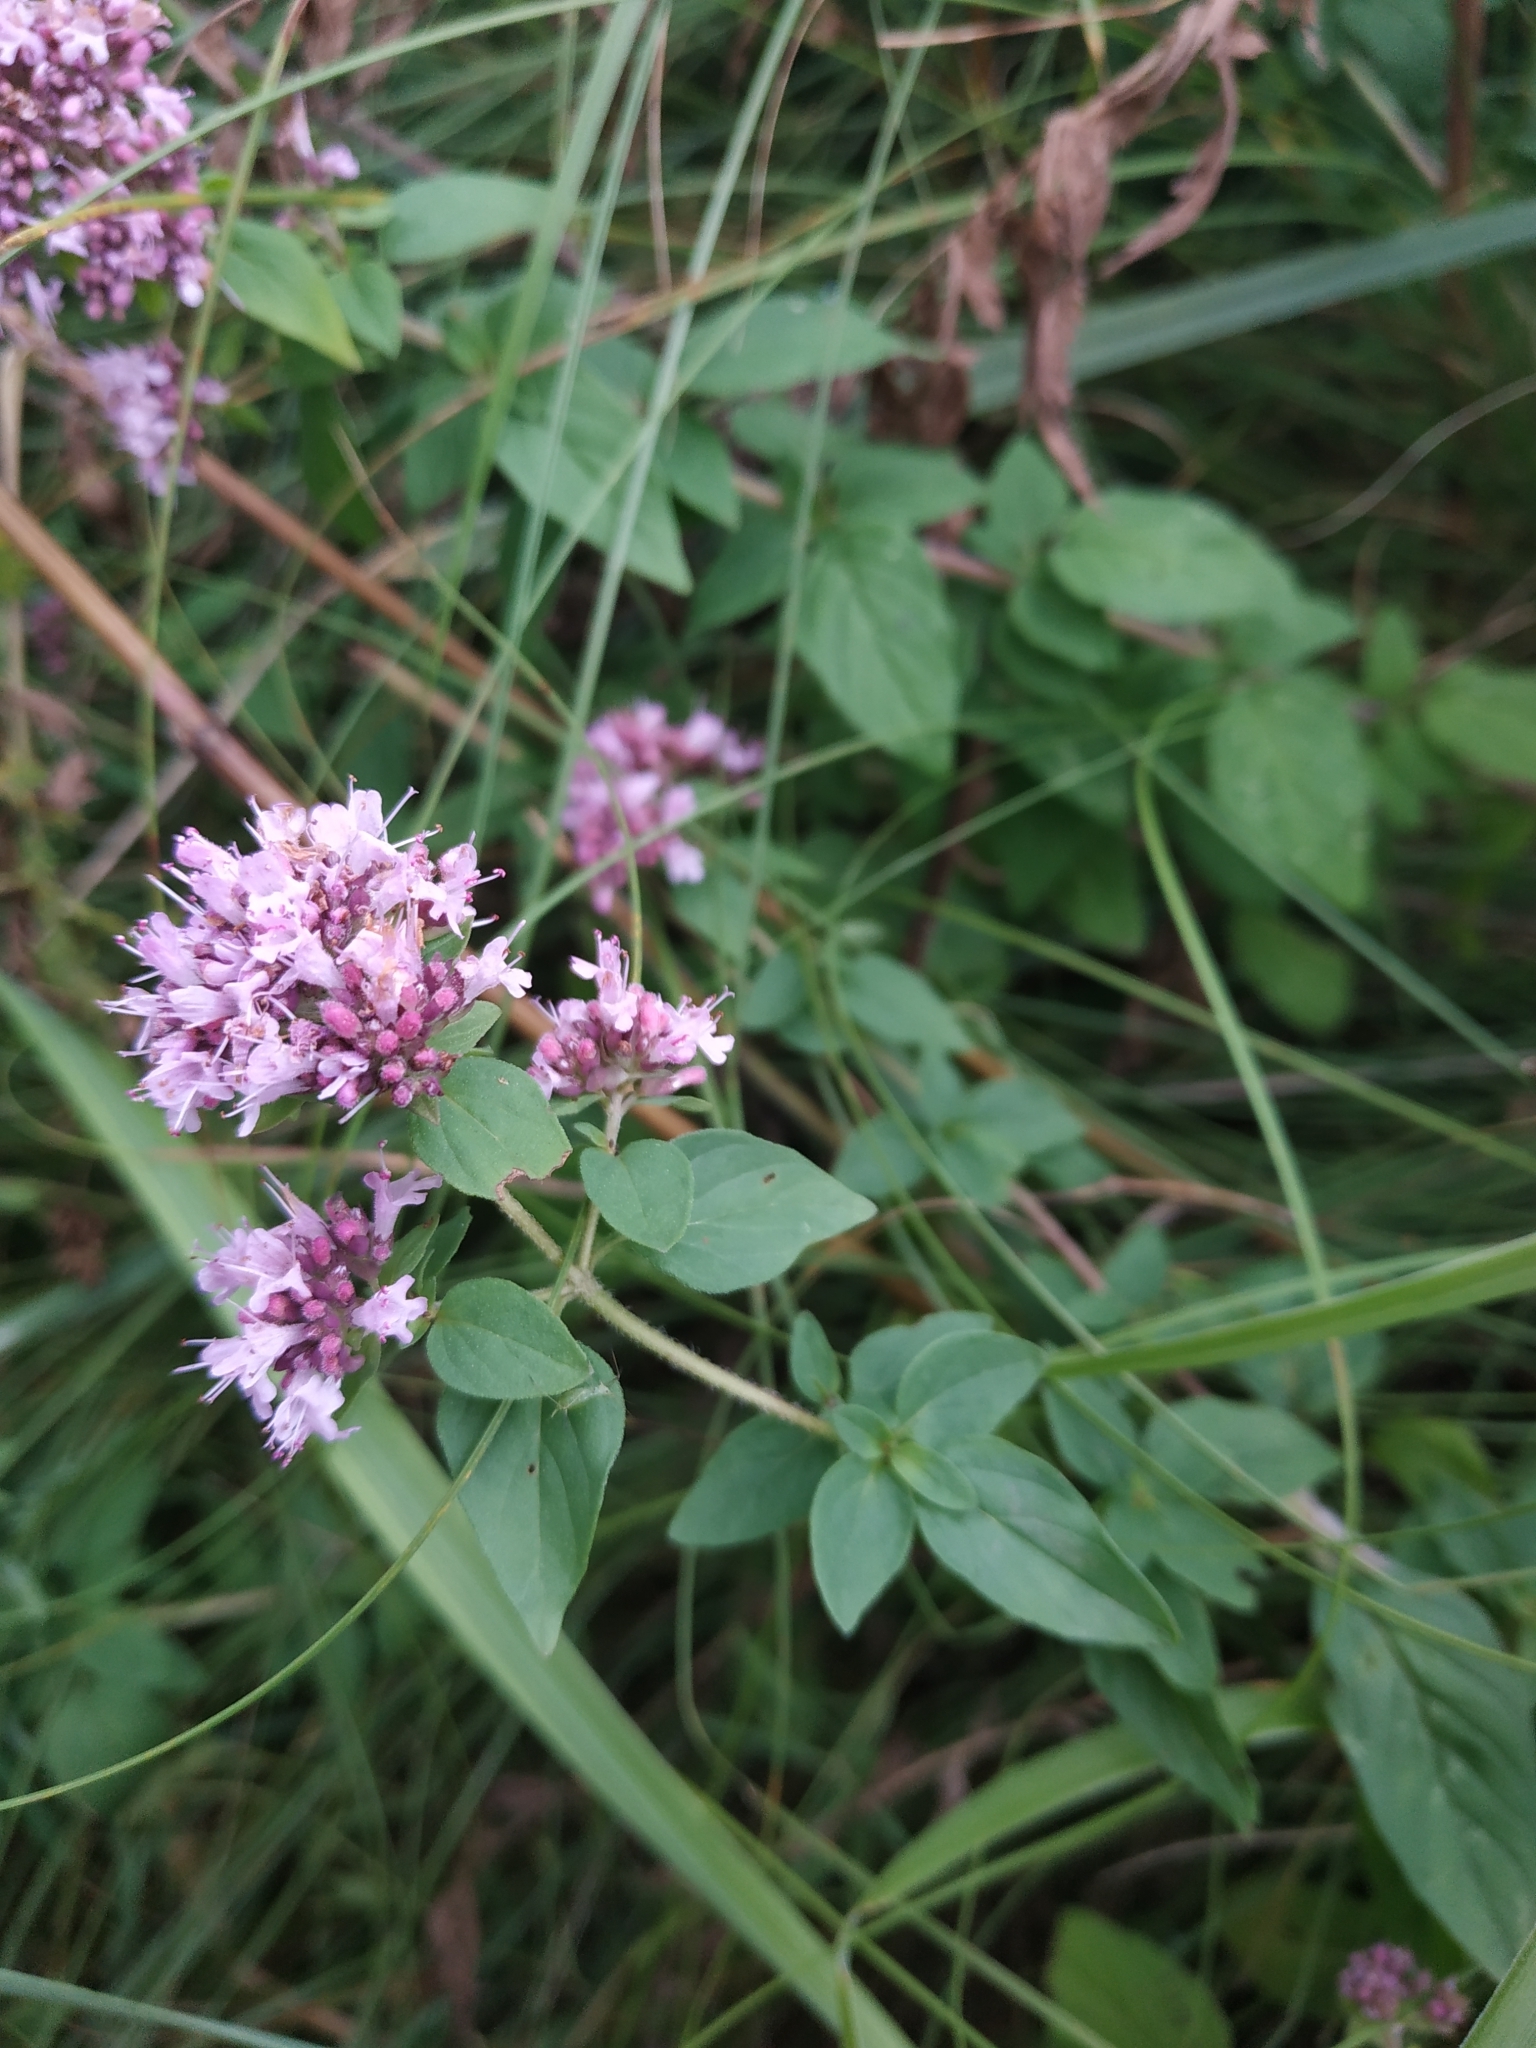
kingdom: Plantae
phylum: Tracheophyta
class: Magnoliopsida
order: Lamiales
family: Lamiaceae
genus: Origanum
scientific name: Origanum vulgare
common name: Wild marjoram
